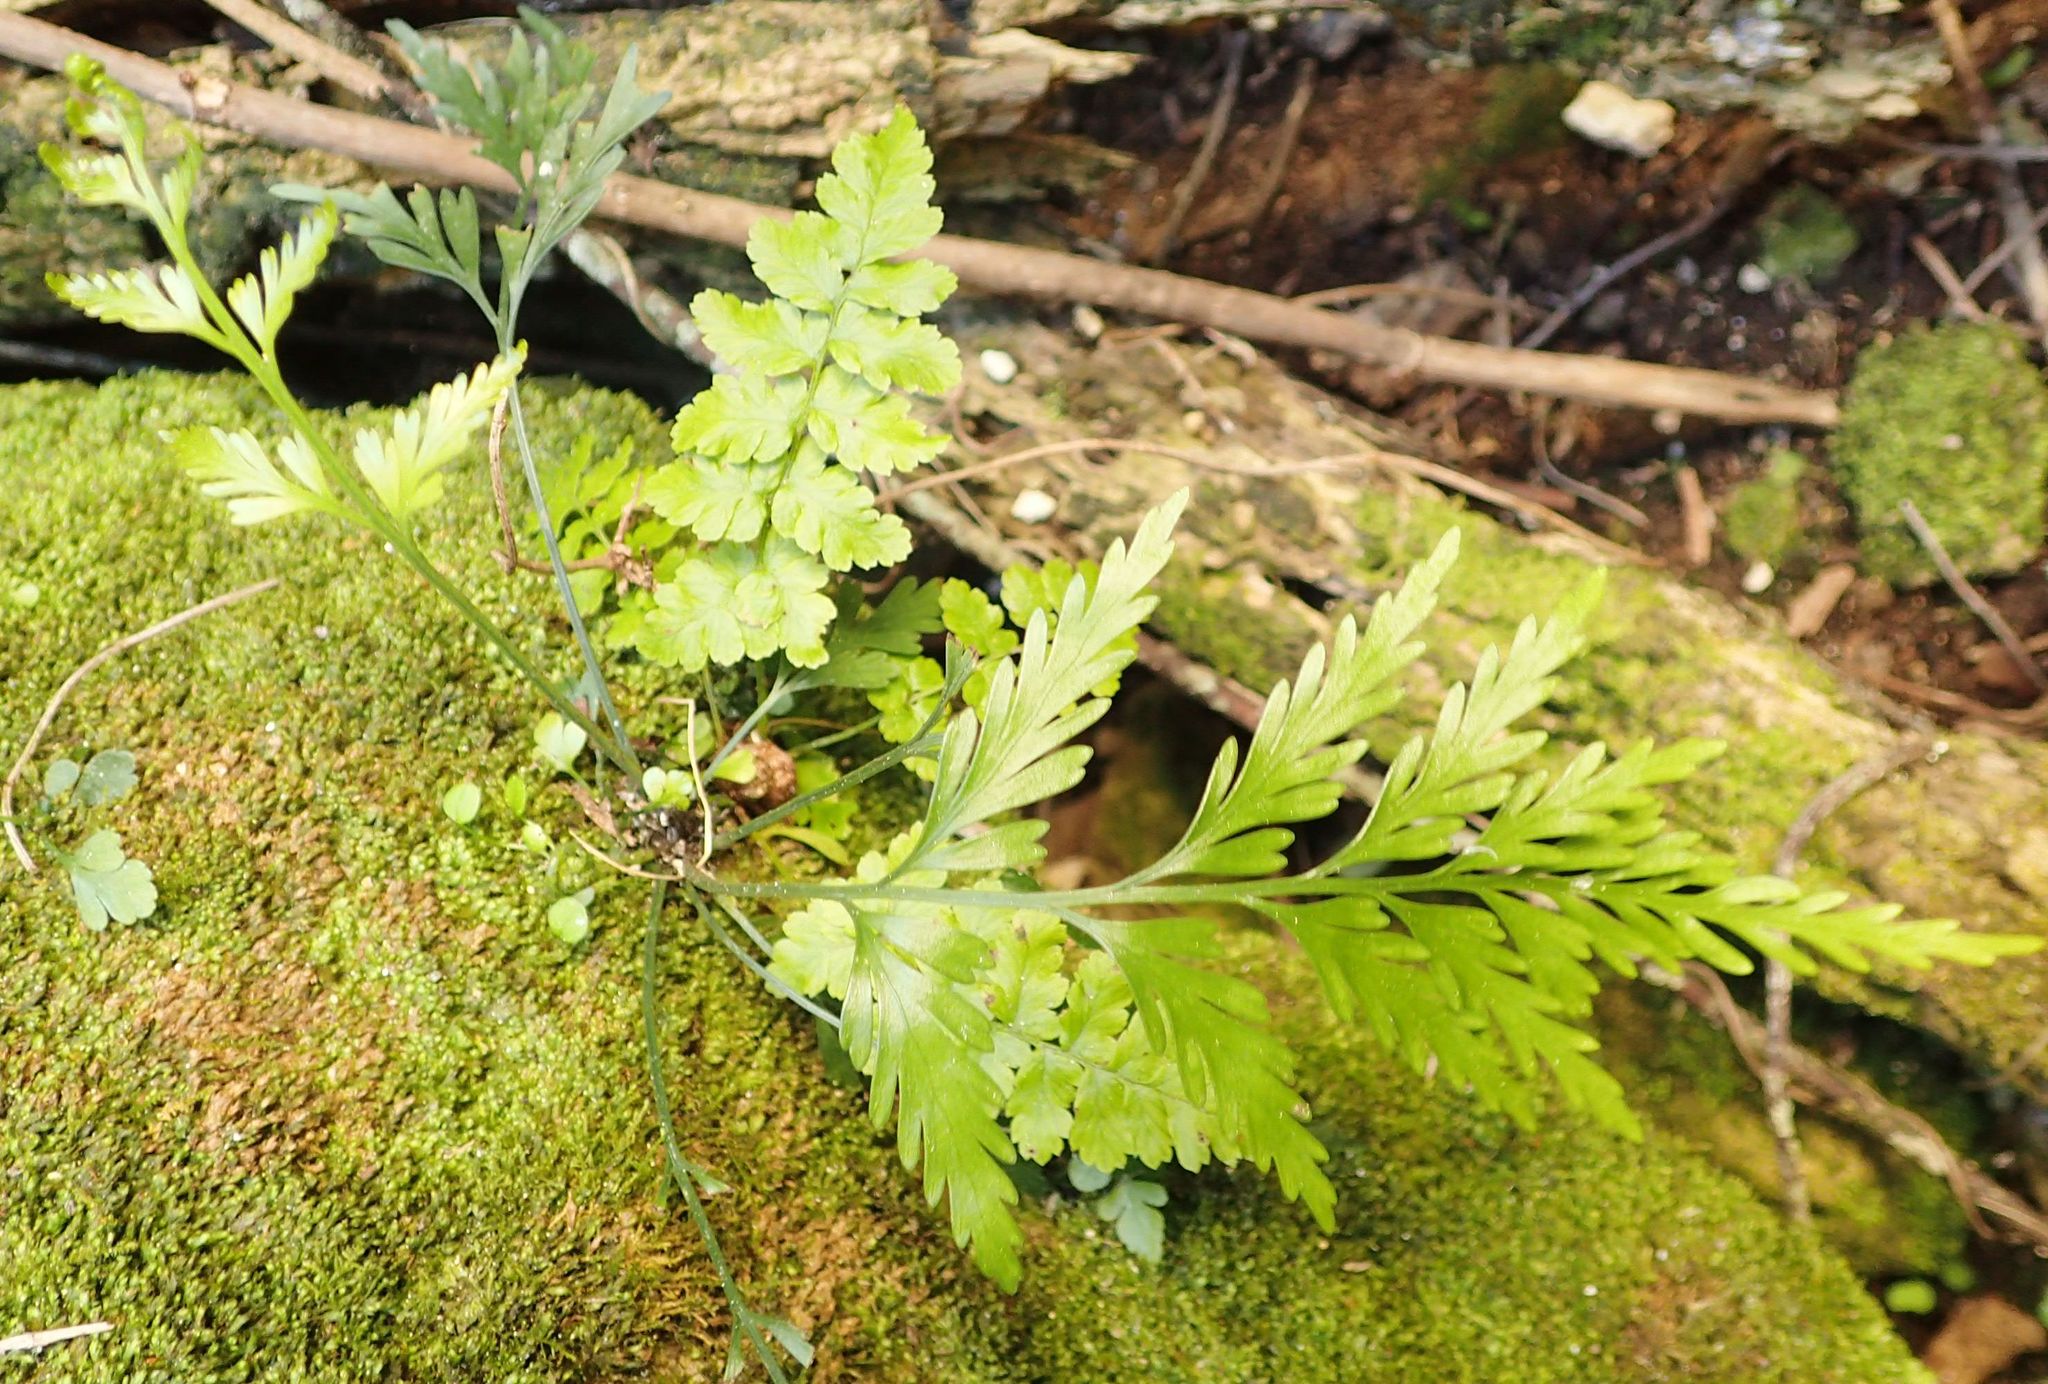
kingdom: Plantae
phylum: Tracheophyta
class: Polypodiopsida
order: Polypodiales
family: Aspleniaceae
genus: Asplenium
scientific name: Asplenium appendiculatum
